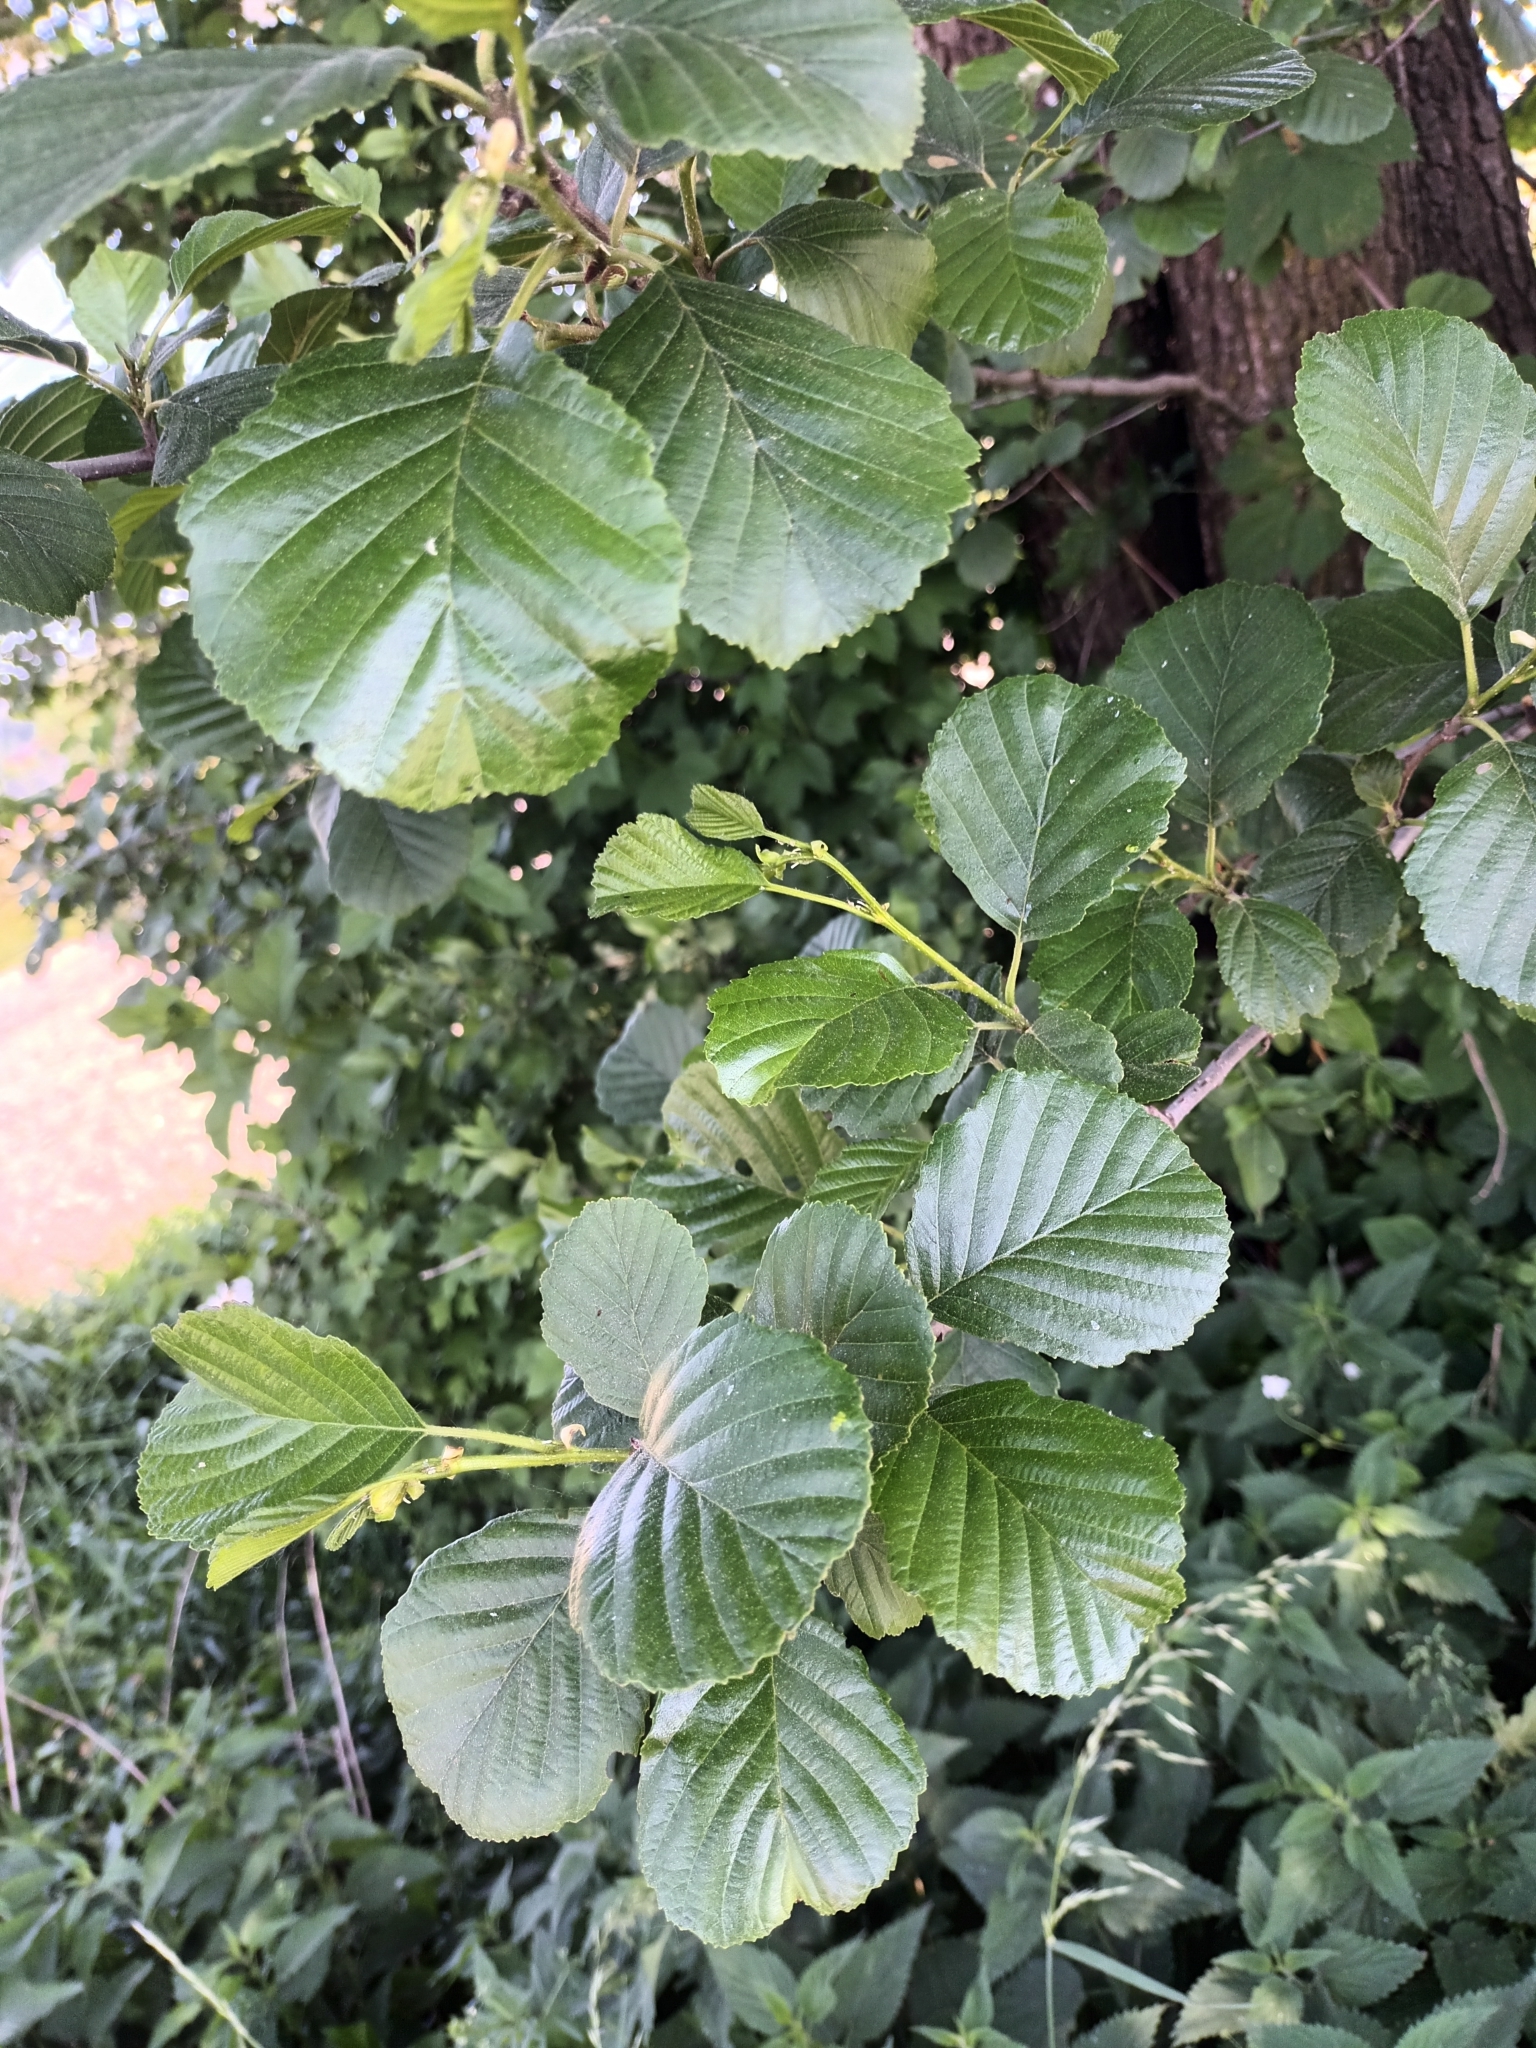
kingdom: Plantae
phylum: Tracheophyta
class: Magnoliopsida
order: Fagales
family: Betulaceae
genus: Alnus
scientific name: Alnus glutinosa
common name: Black alder
